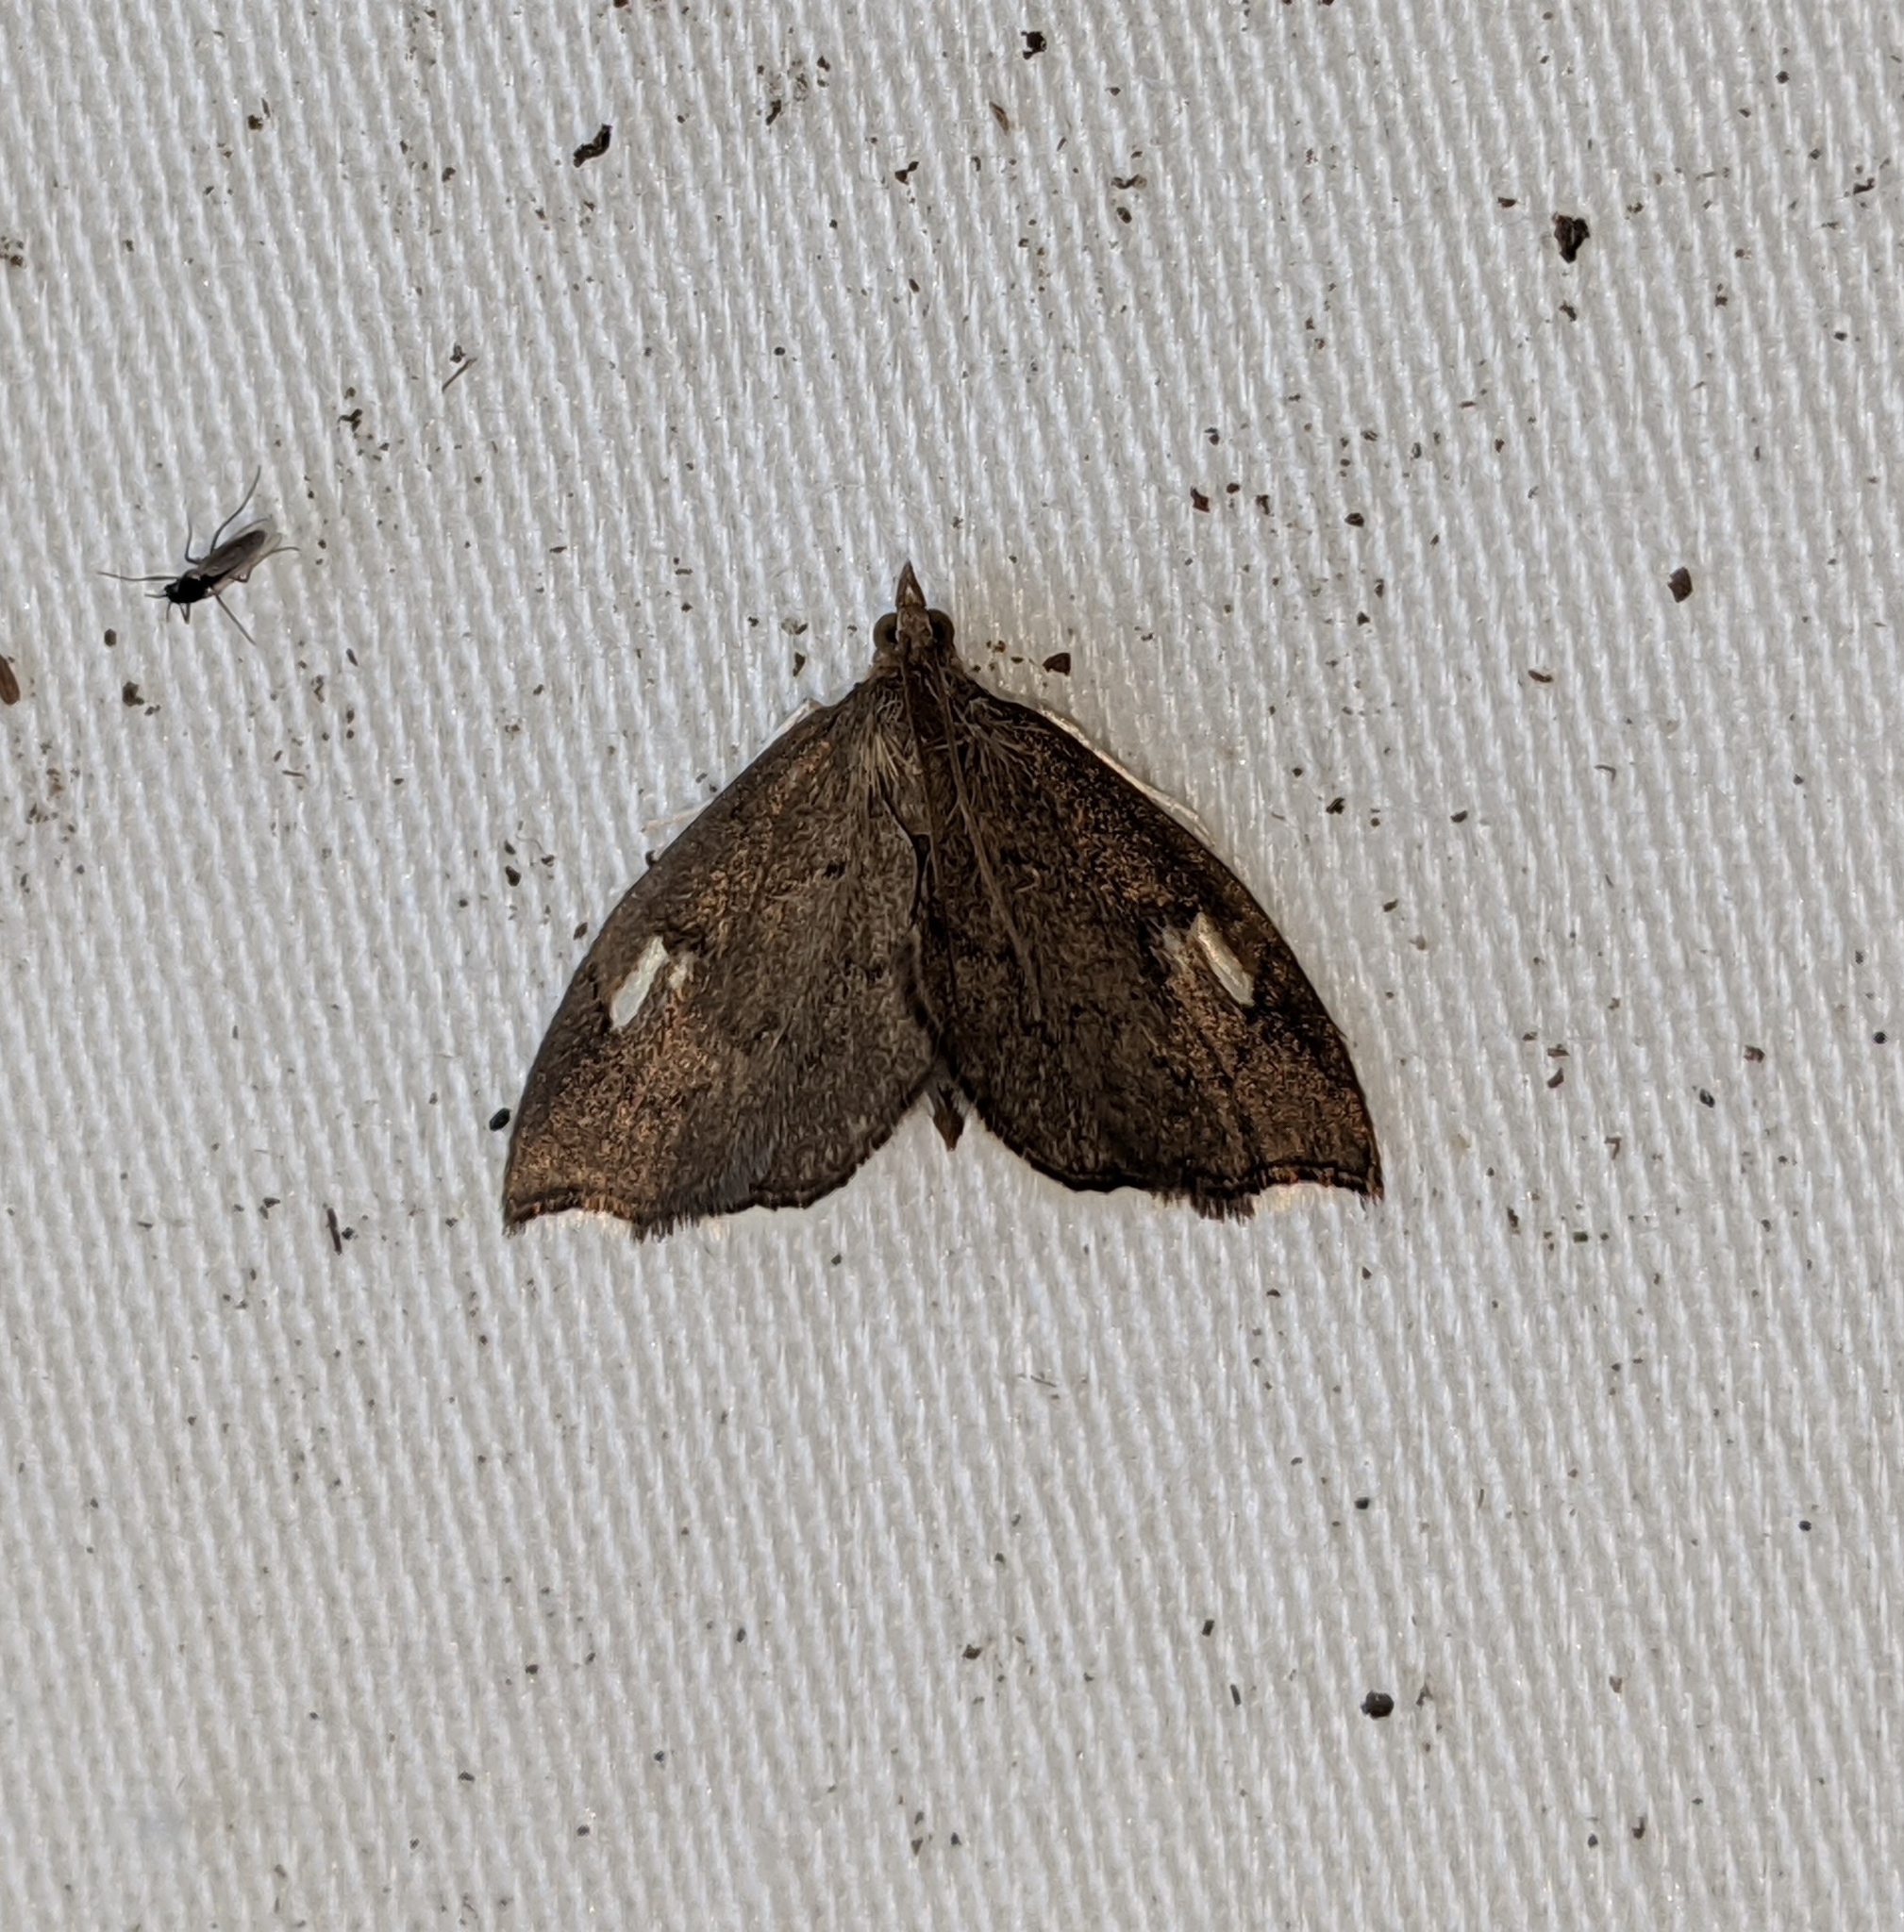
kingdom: Animalia
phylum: Arthropoda
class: Insecta
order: Lepidoptera
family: Crambidae
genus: Perispasta
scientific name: Perispasta caeculalis
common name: Titian peale's moth
